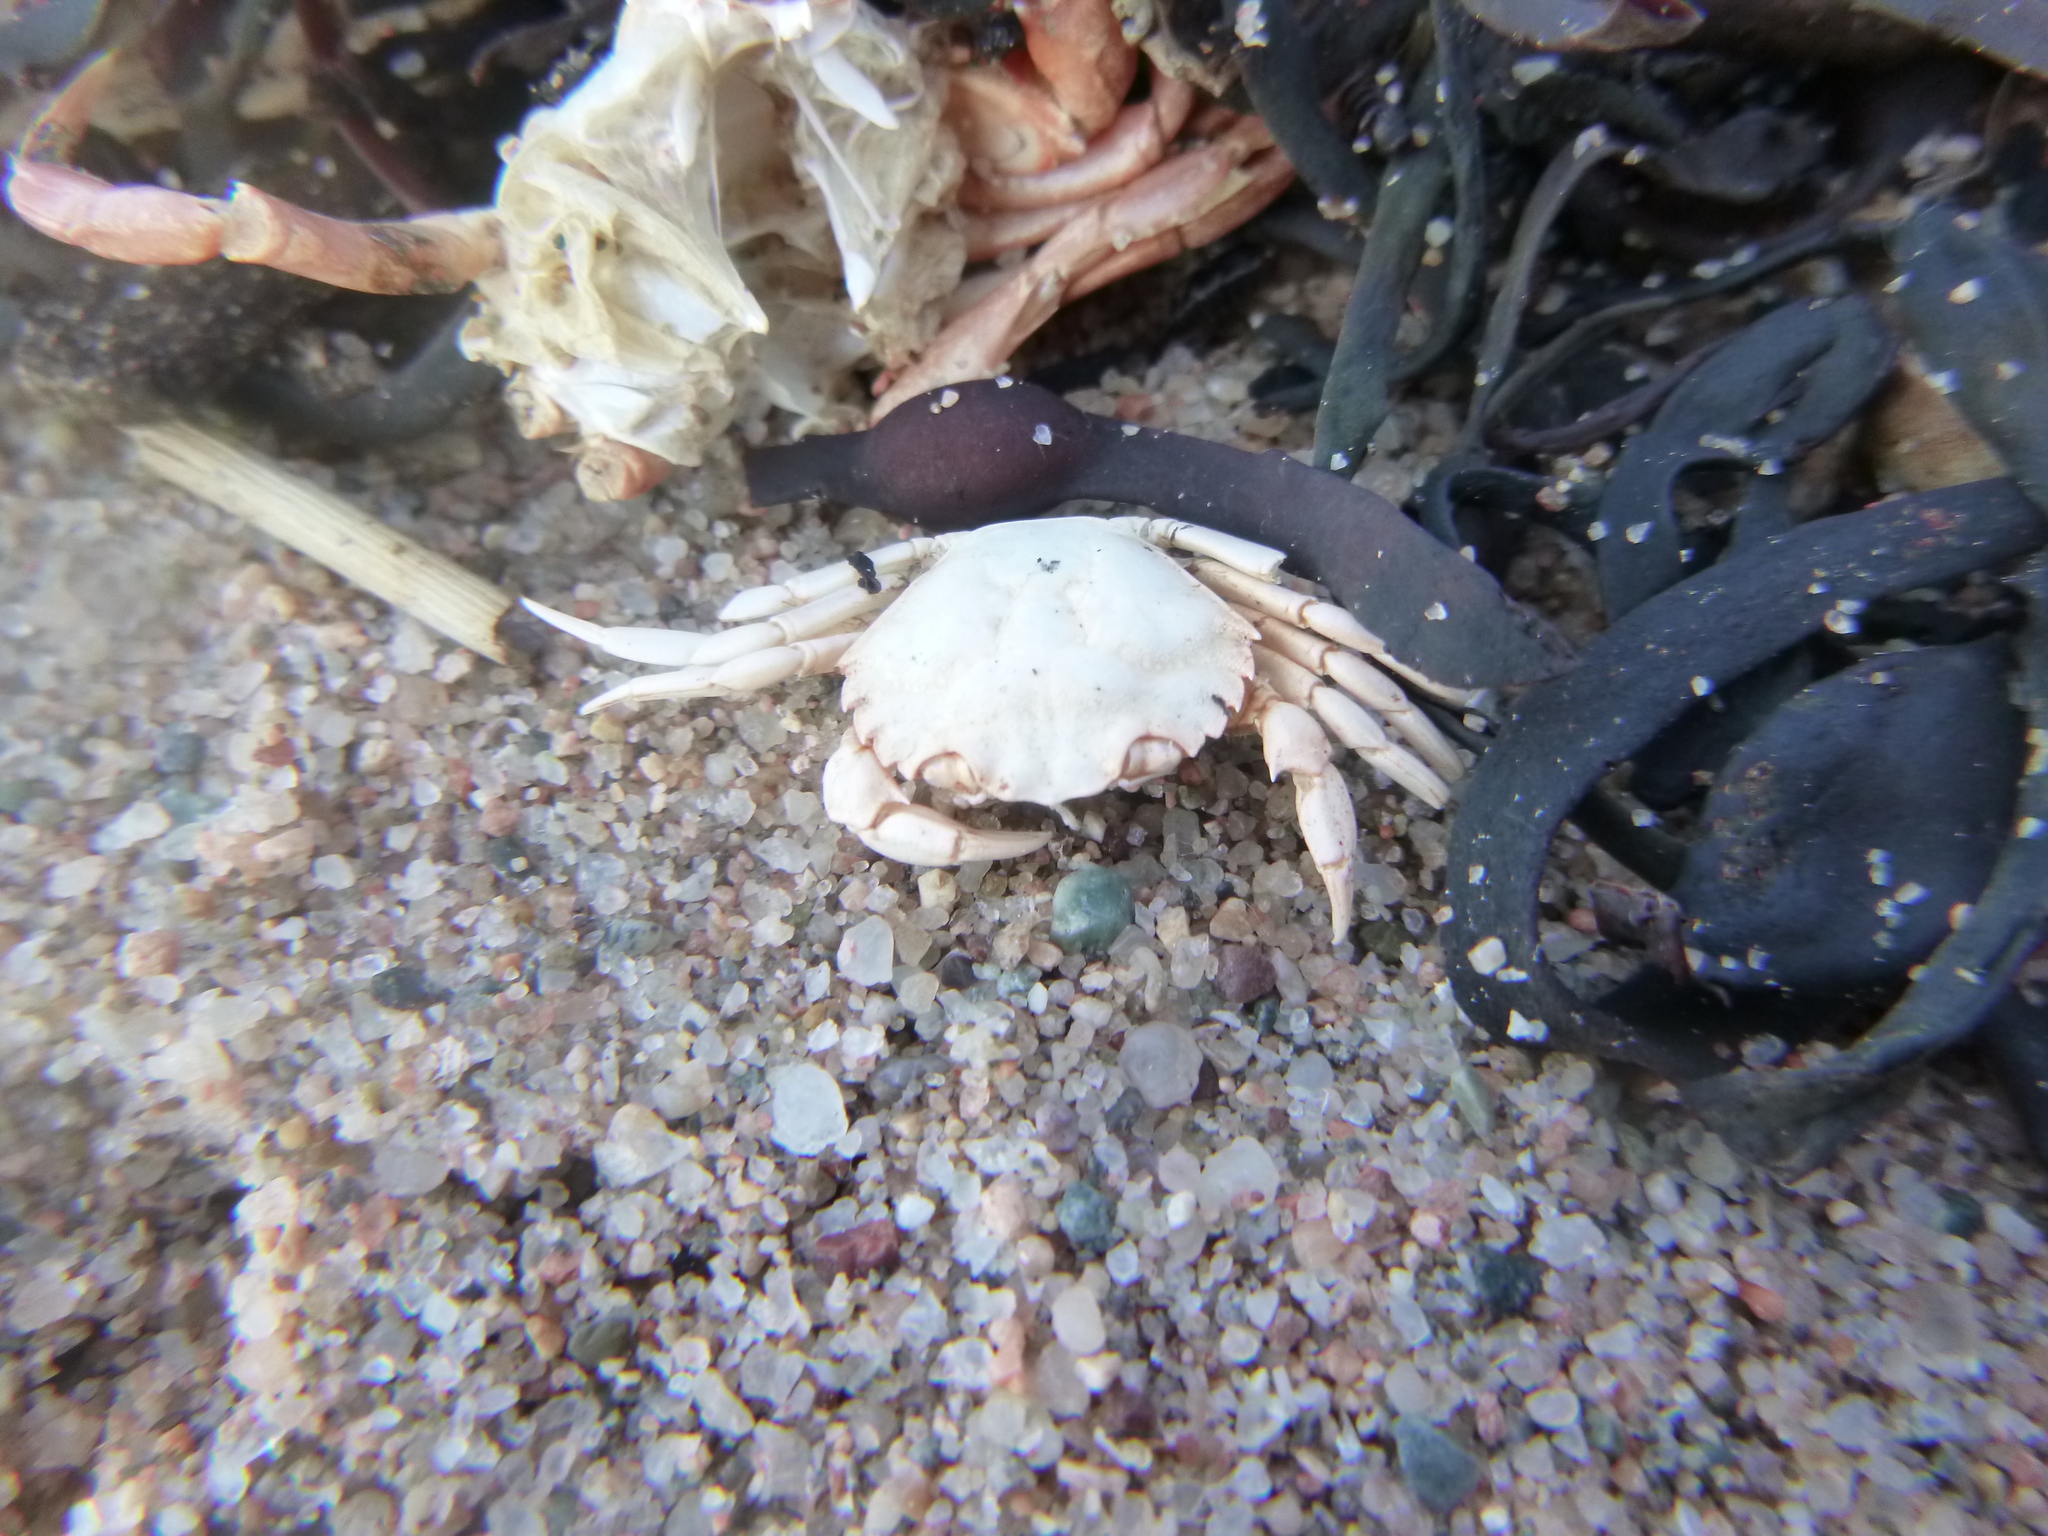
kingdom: Animalia
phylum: Arthropoda
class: Malacostraca
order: Decapoda
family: Carcinidae
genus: Carcinus
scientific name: Carcinus maenas
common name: European green crab
